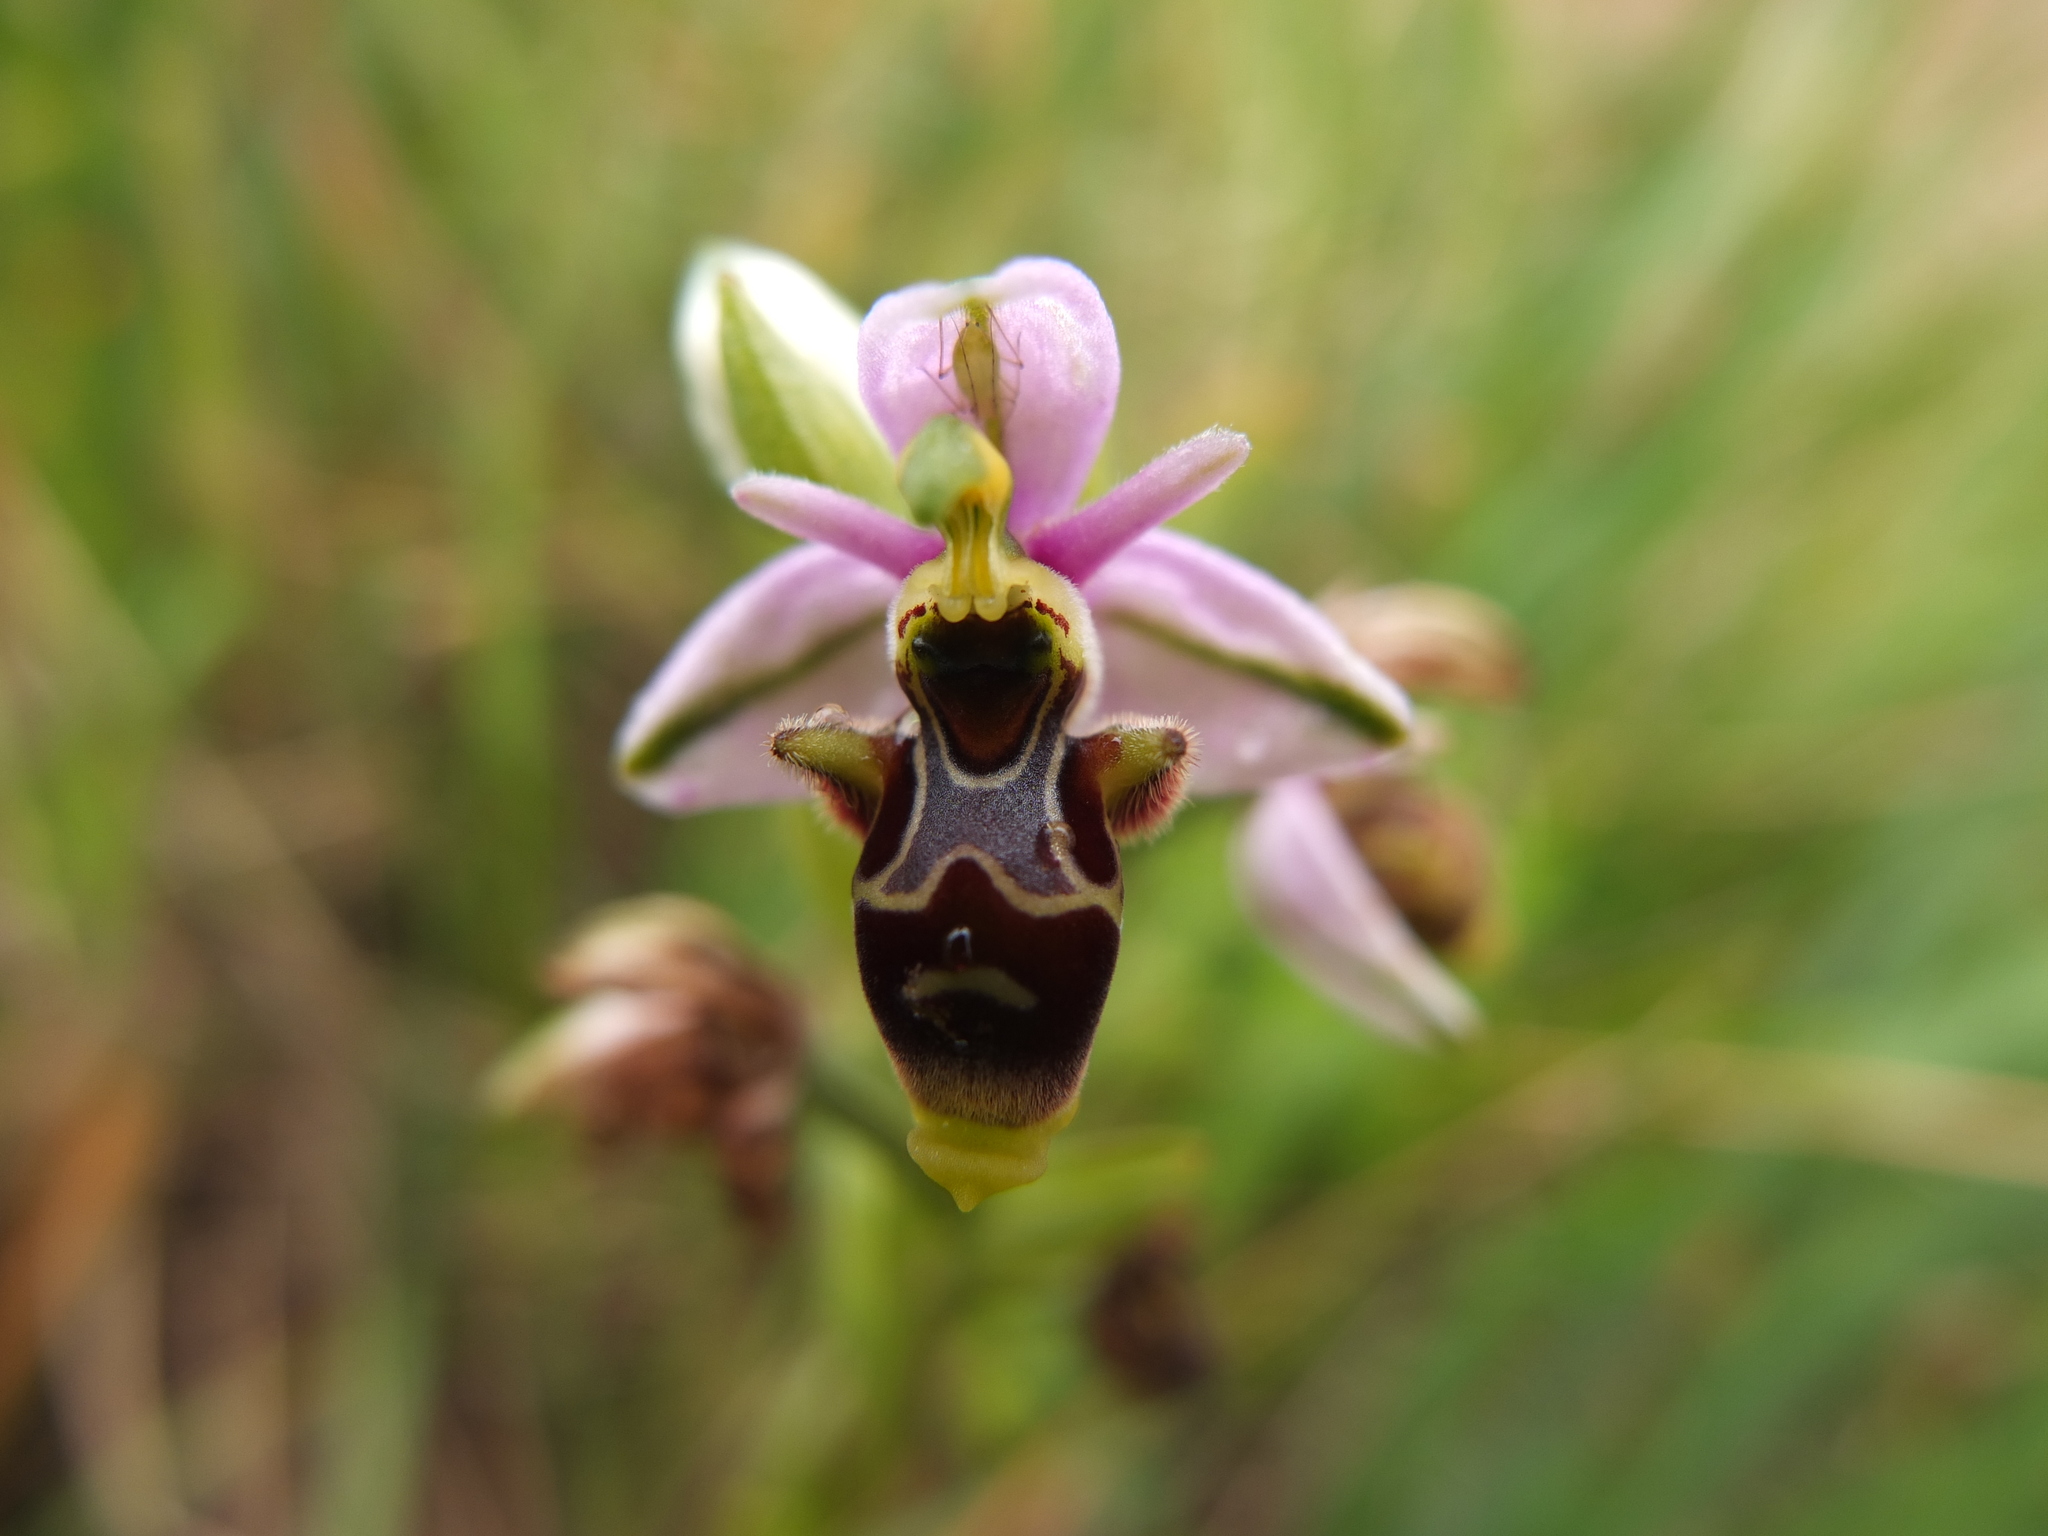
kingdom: Plantae
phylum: Tracheophyta
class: Liliopsida
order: Asparagales
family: Orchidaceae
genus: Ophrys
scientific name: Ophrys scolopax
